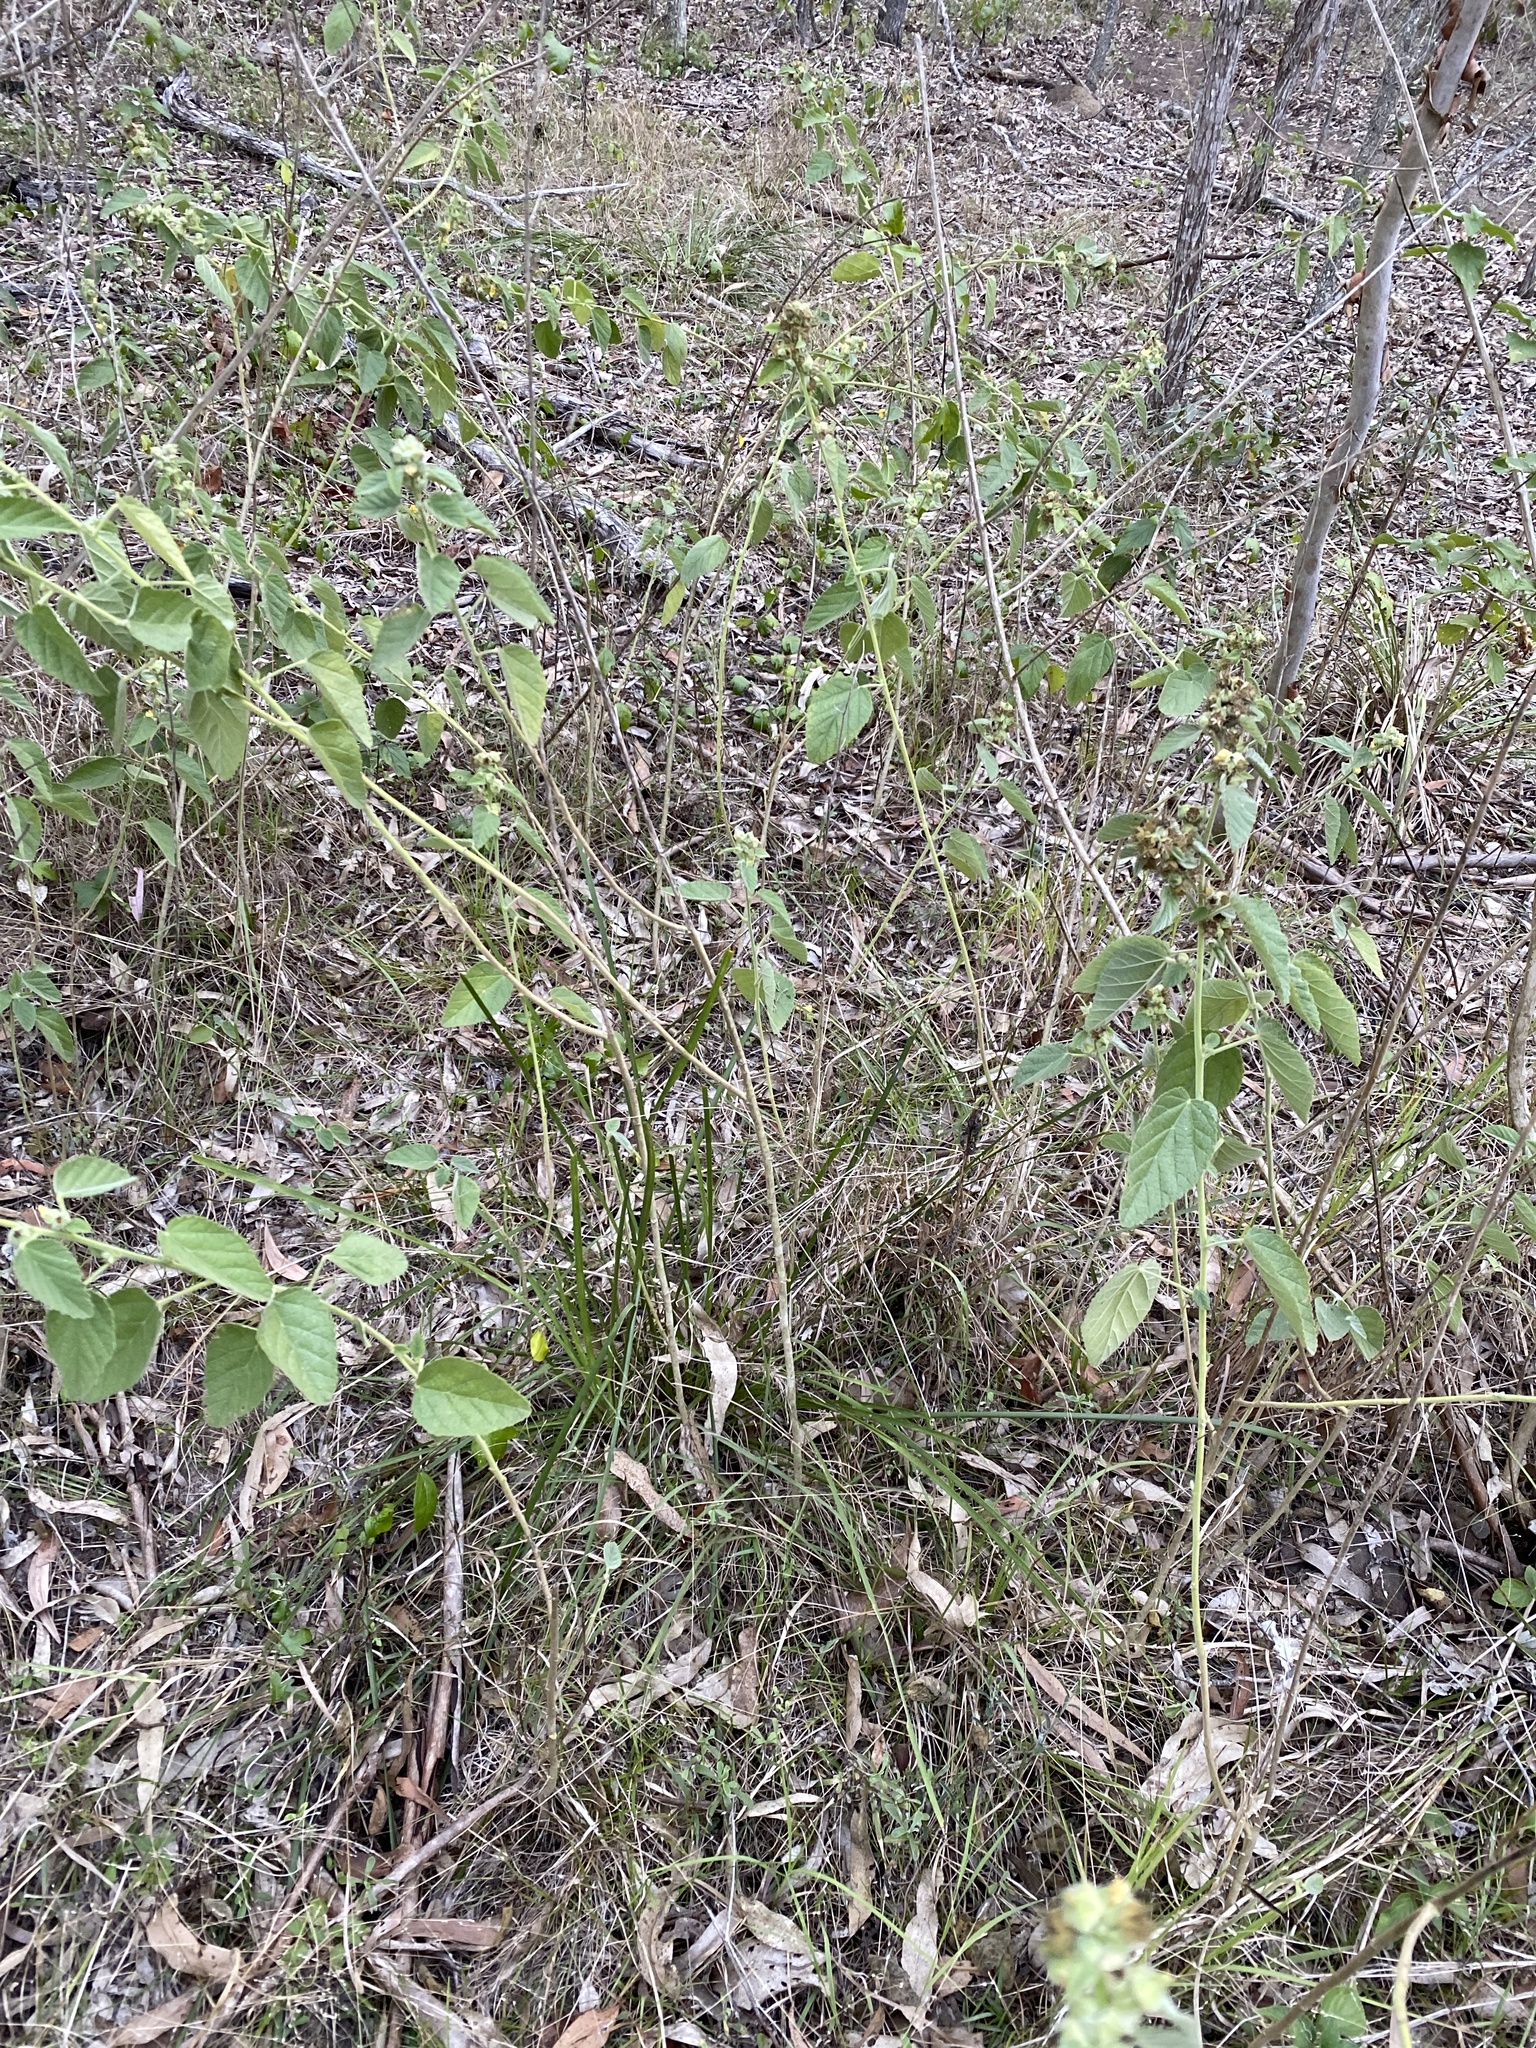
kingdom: Plantae
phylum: Tracheophyta
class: Magnoliopsida
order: Malvales
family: Malvaceae
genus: Sida
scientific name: Sida cordifolia
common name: Ilima
